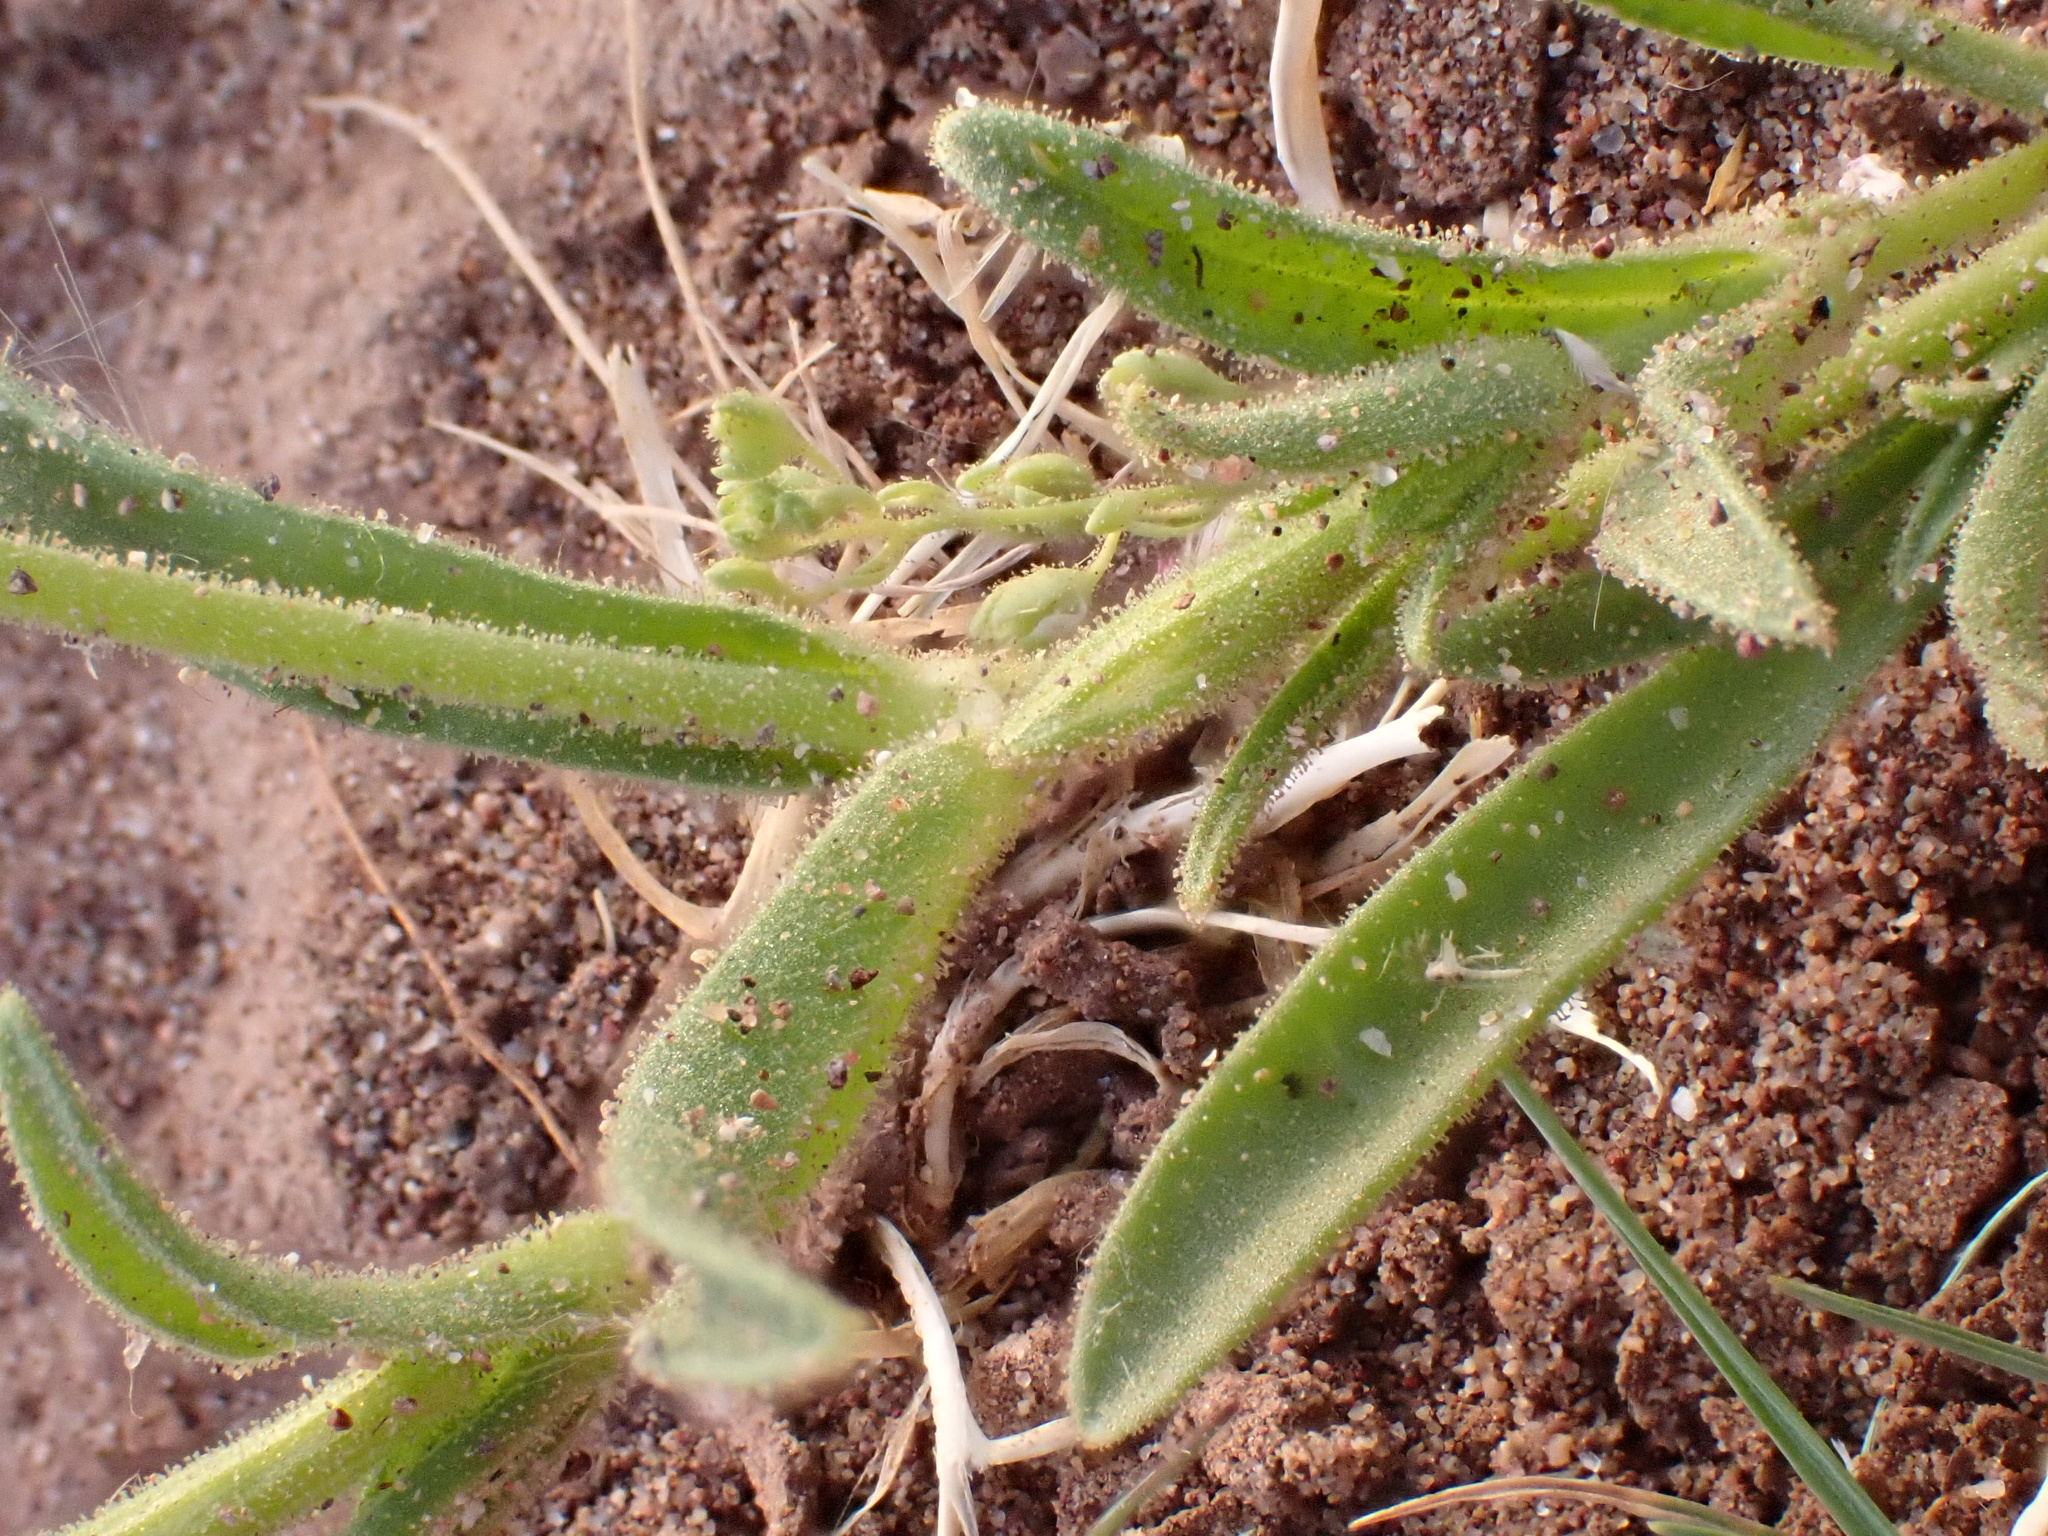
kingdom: Plantae
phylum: Tracheophyta
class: Magnoliopsida
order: Caryophyllales
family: Caryophyllaceae
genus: Silene
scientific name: Silene villosa
